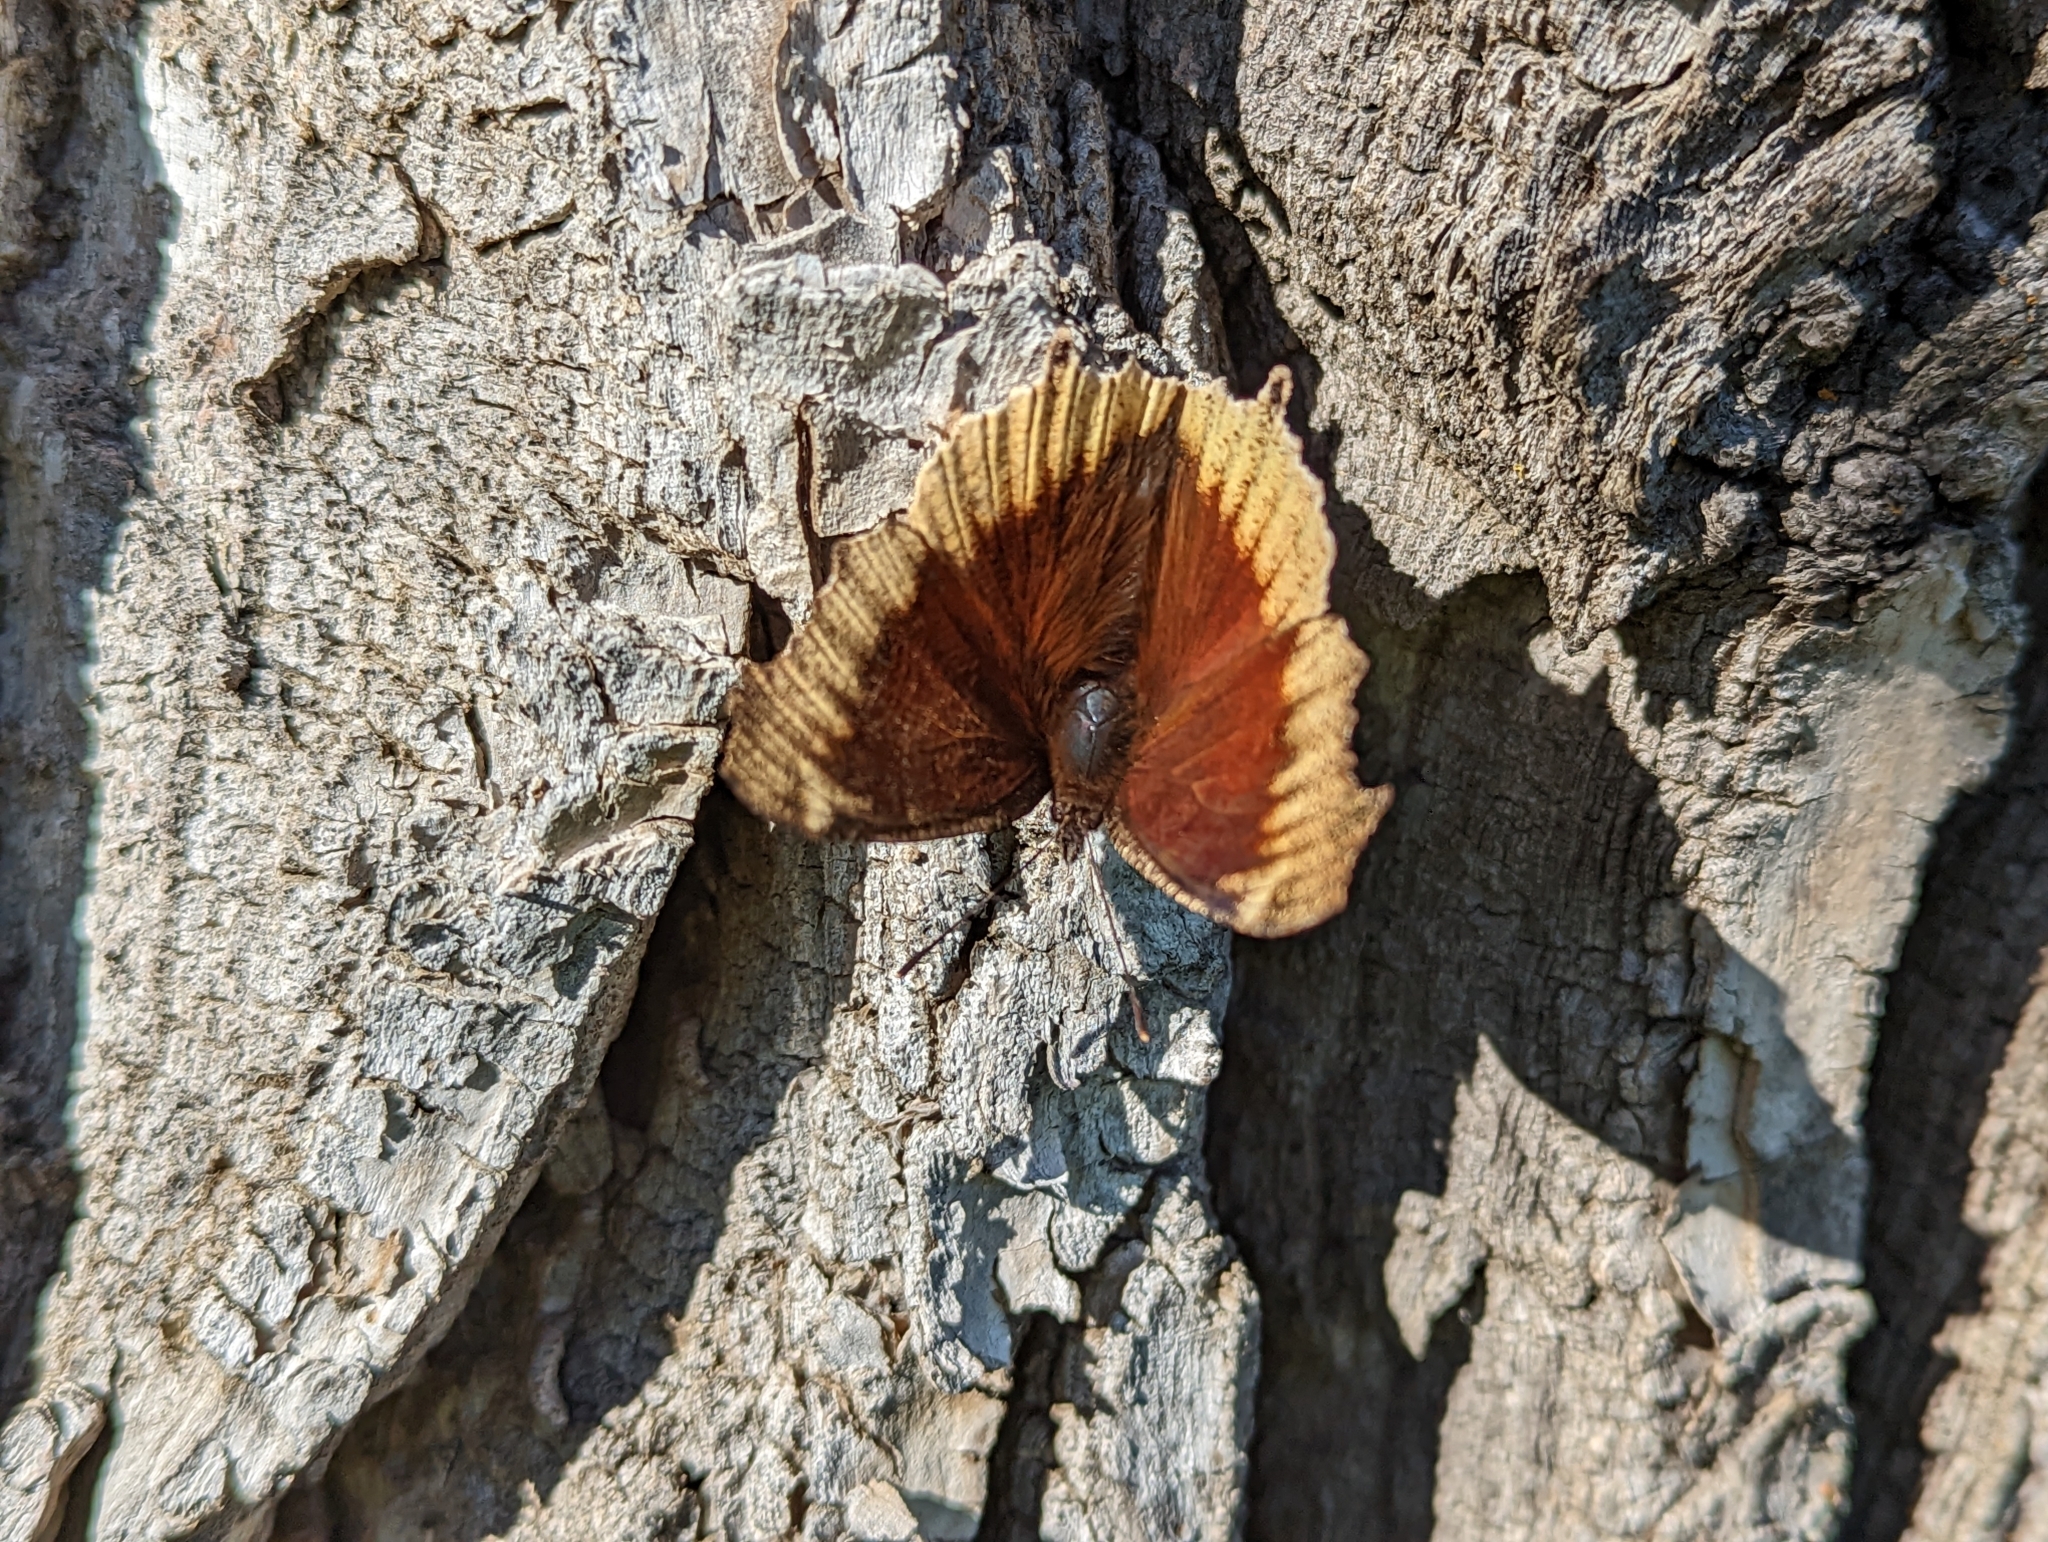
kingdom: Animalia
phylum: Arthropoda
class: Insecta
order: Lepidoptera
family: Nymphalidae
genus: Nymphalis
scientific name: Nymphalis antiopa
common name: Camberwell beauty
